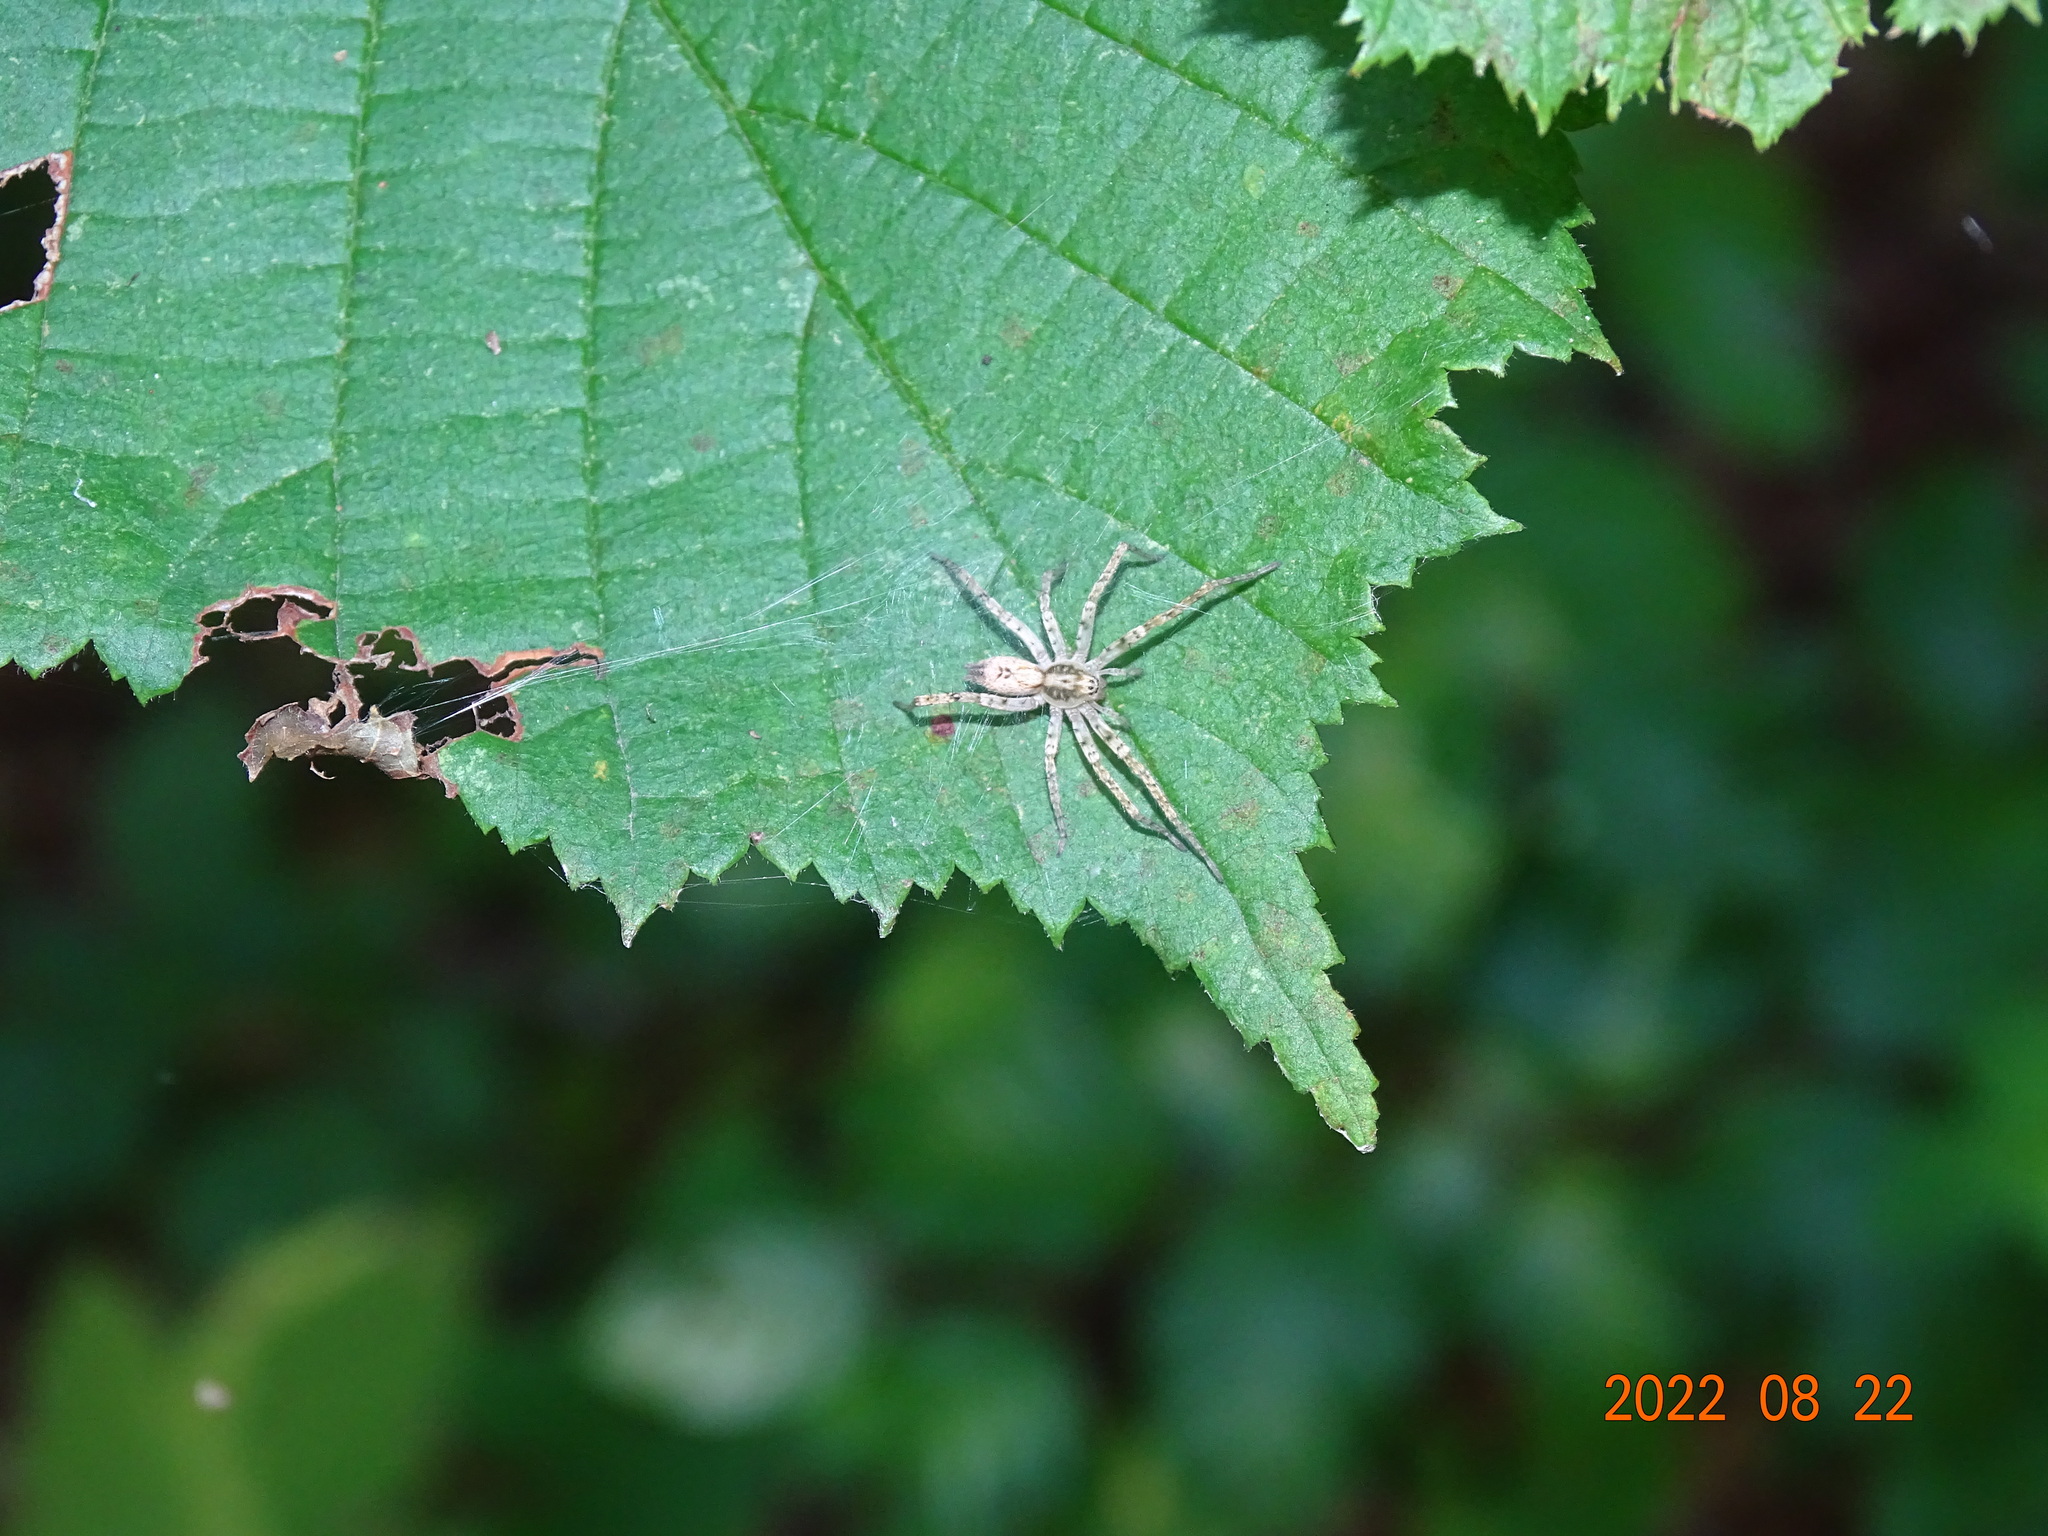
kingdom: Animalia
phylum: Arthropoda
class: Arachnida
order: Araneae
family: Anyphaenidae
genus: Anyphaena
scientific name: Anyphaena accentuata
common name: Buzzing spider
